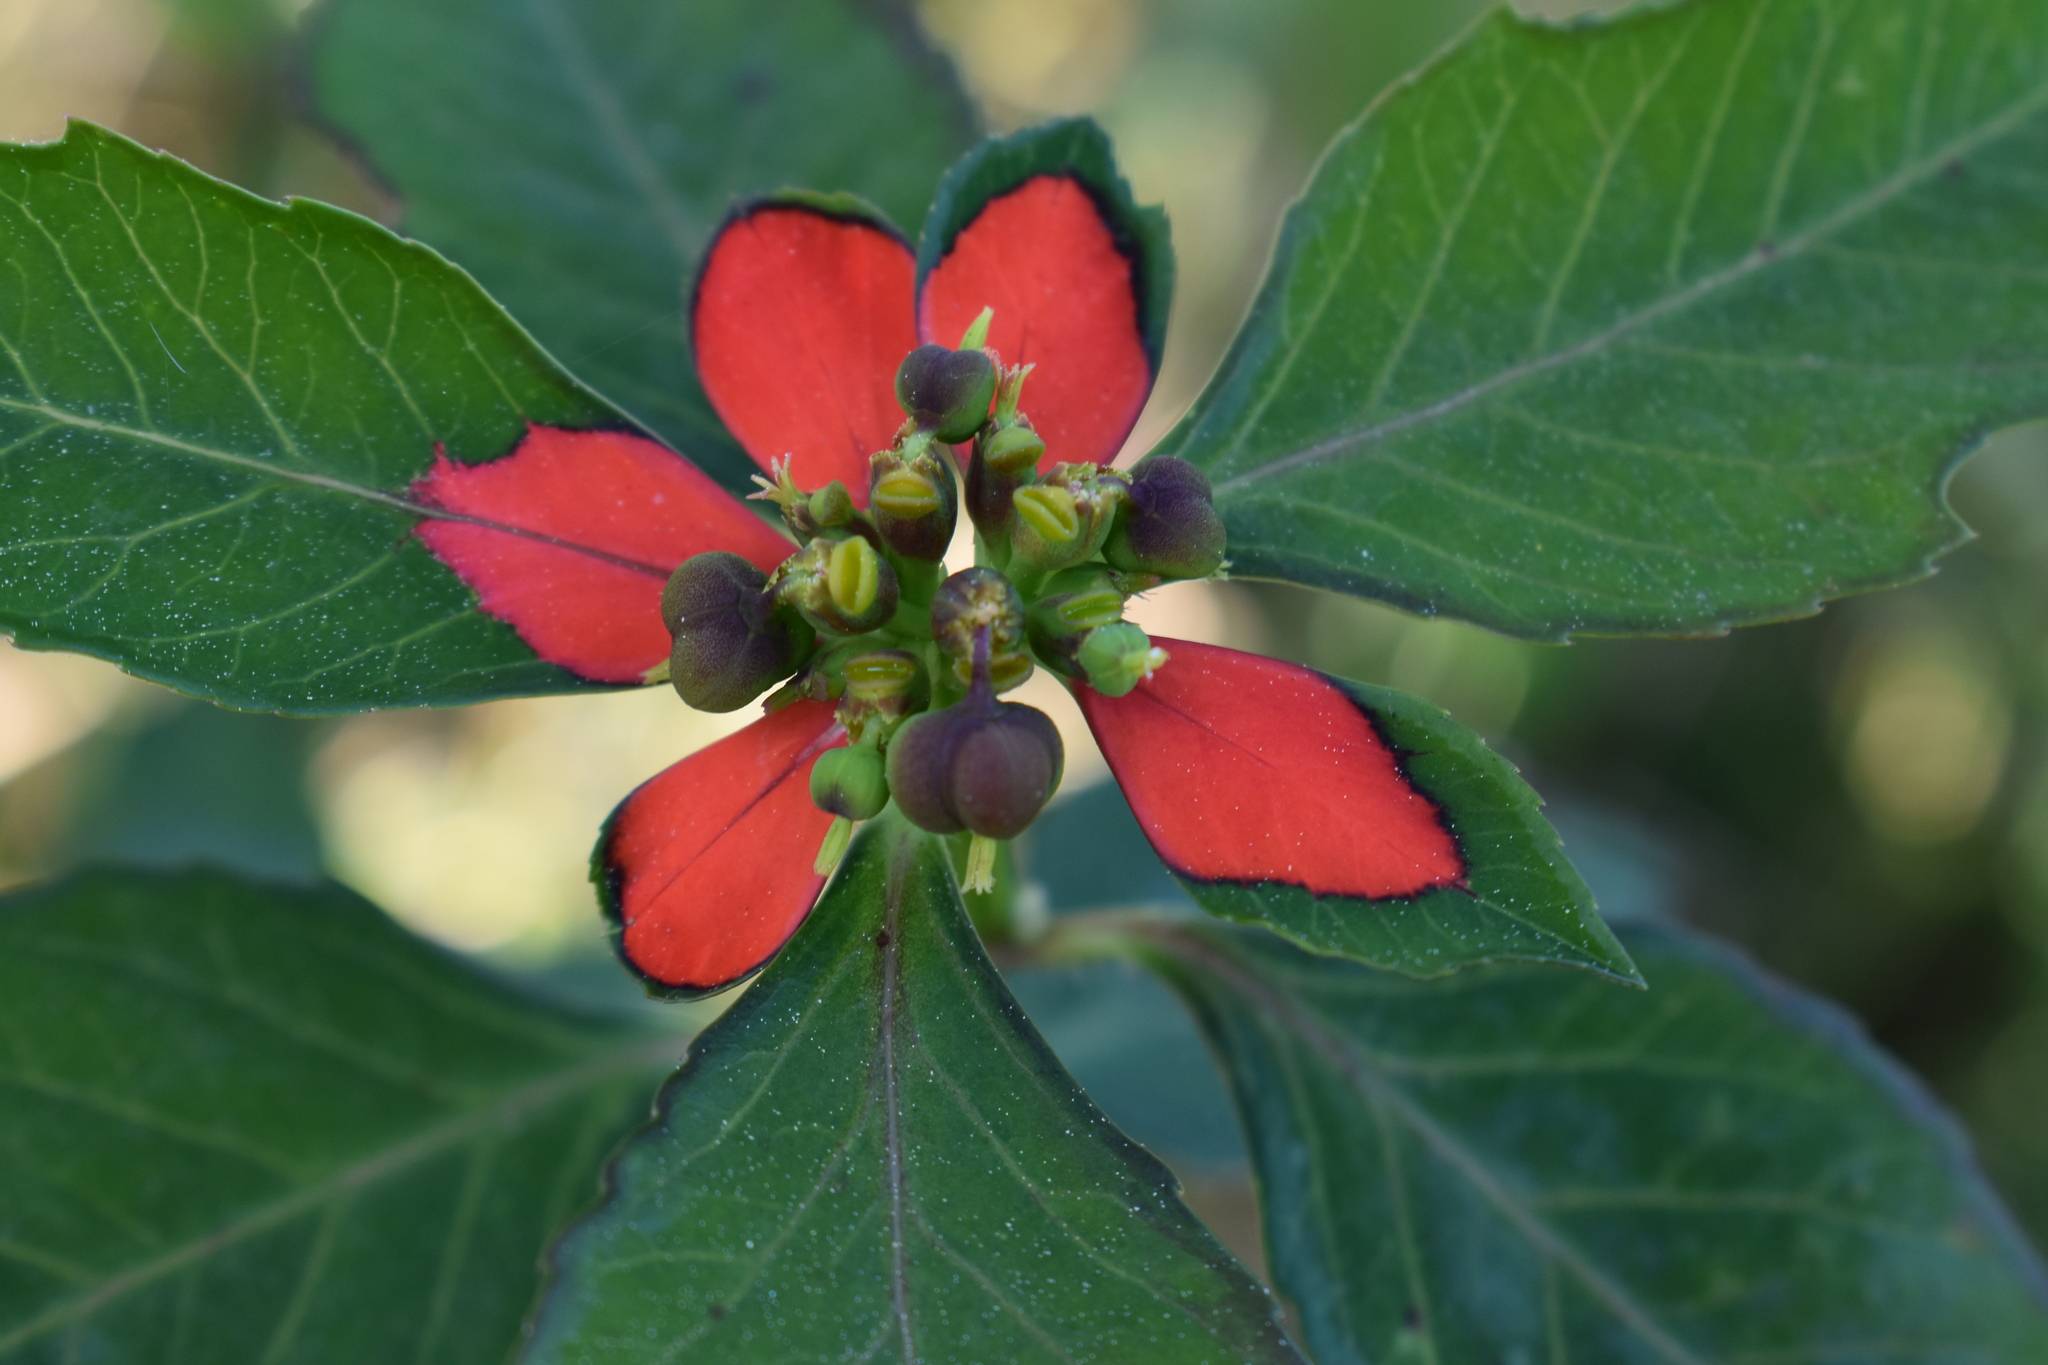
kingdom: Plantae
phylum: Tracheophyta
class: Magnoliopsida
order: Malpighiales
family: Euphorbiaceae
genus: Euphorbia
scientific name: Euphorbia heterophylla
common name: Mexican fireplant
